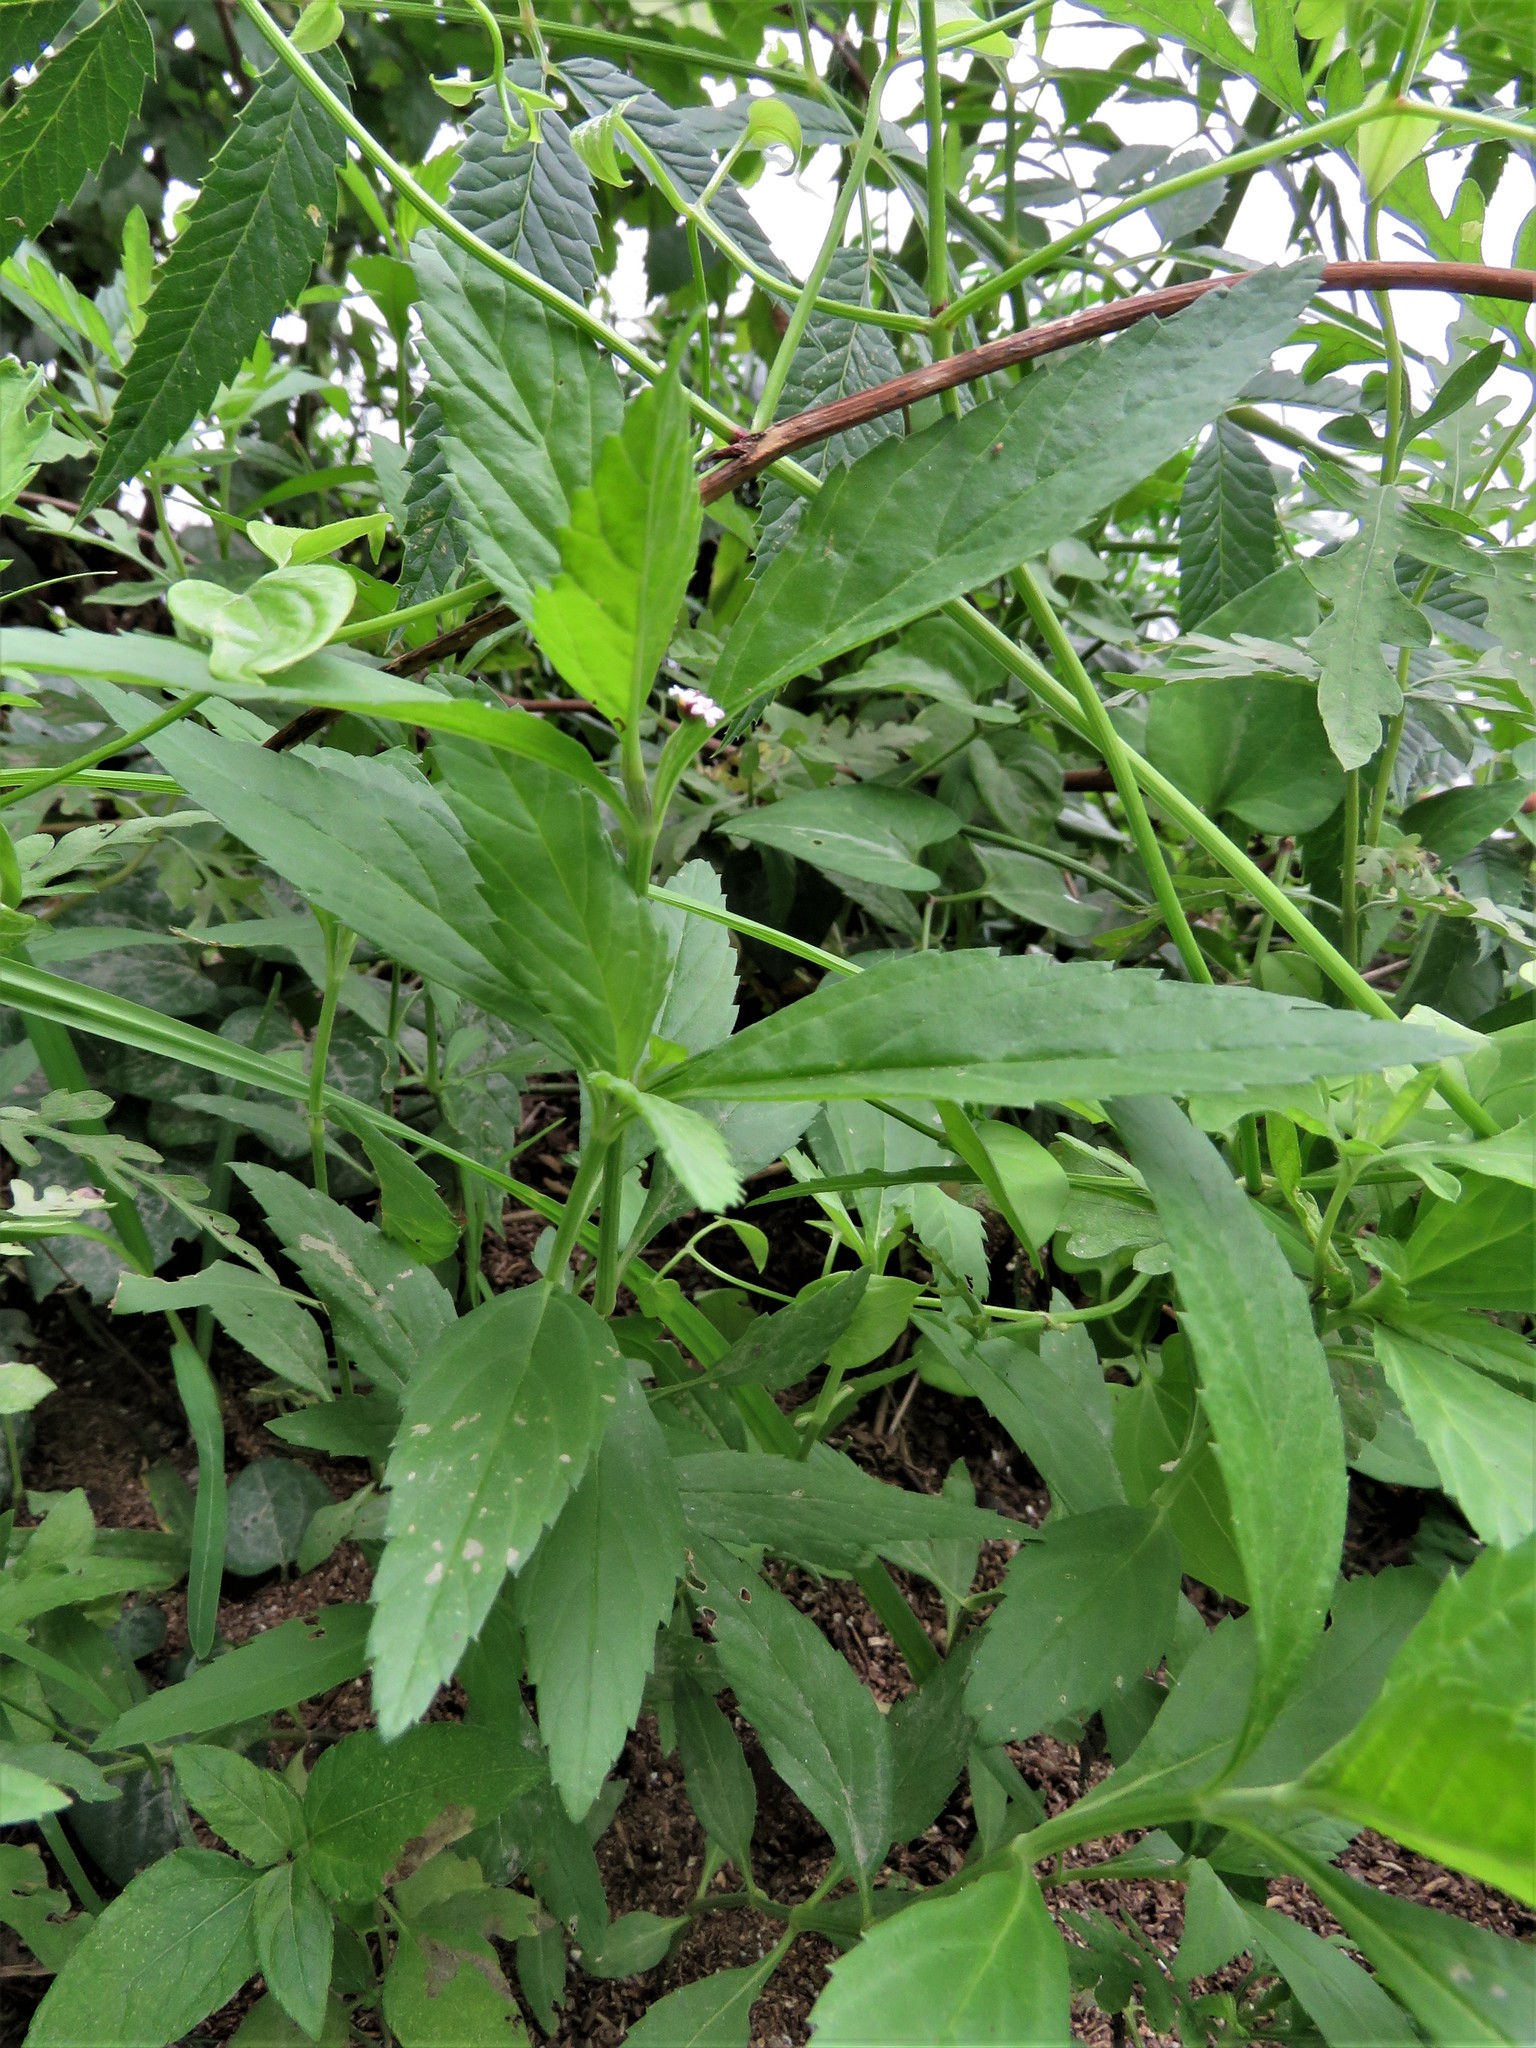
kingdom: Plantae
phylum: Tracheophyta
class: Magnoliopsida
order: Lamiales
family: Verbenaceae
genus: Phyla
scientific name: Phyla lanceolata
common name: Northern fogfruit
